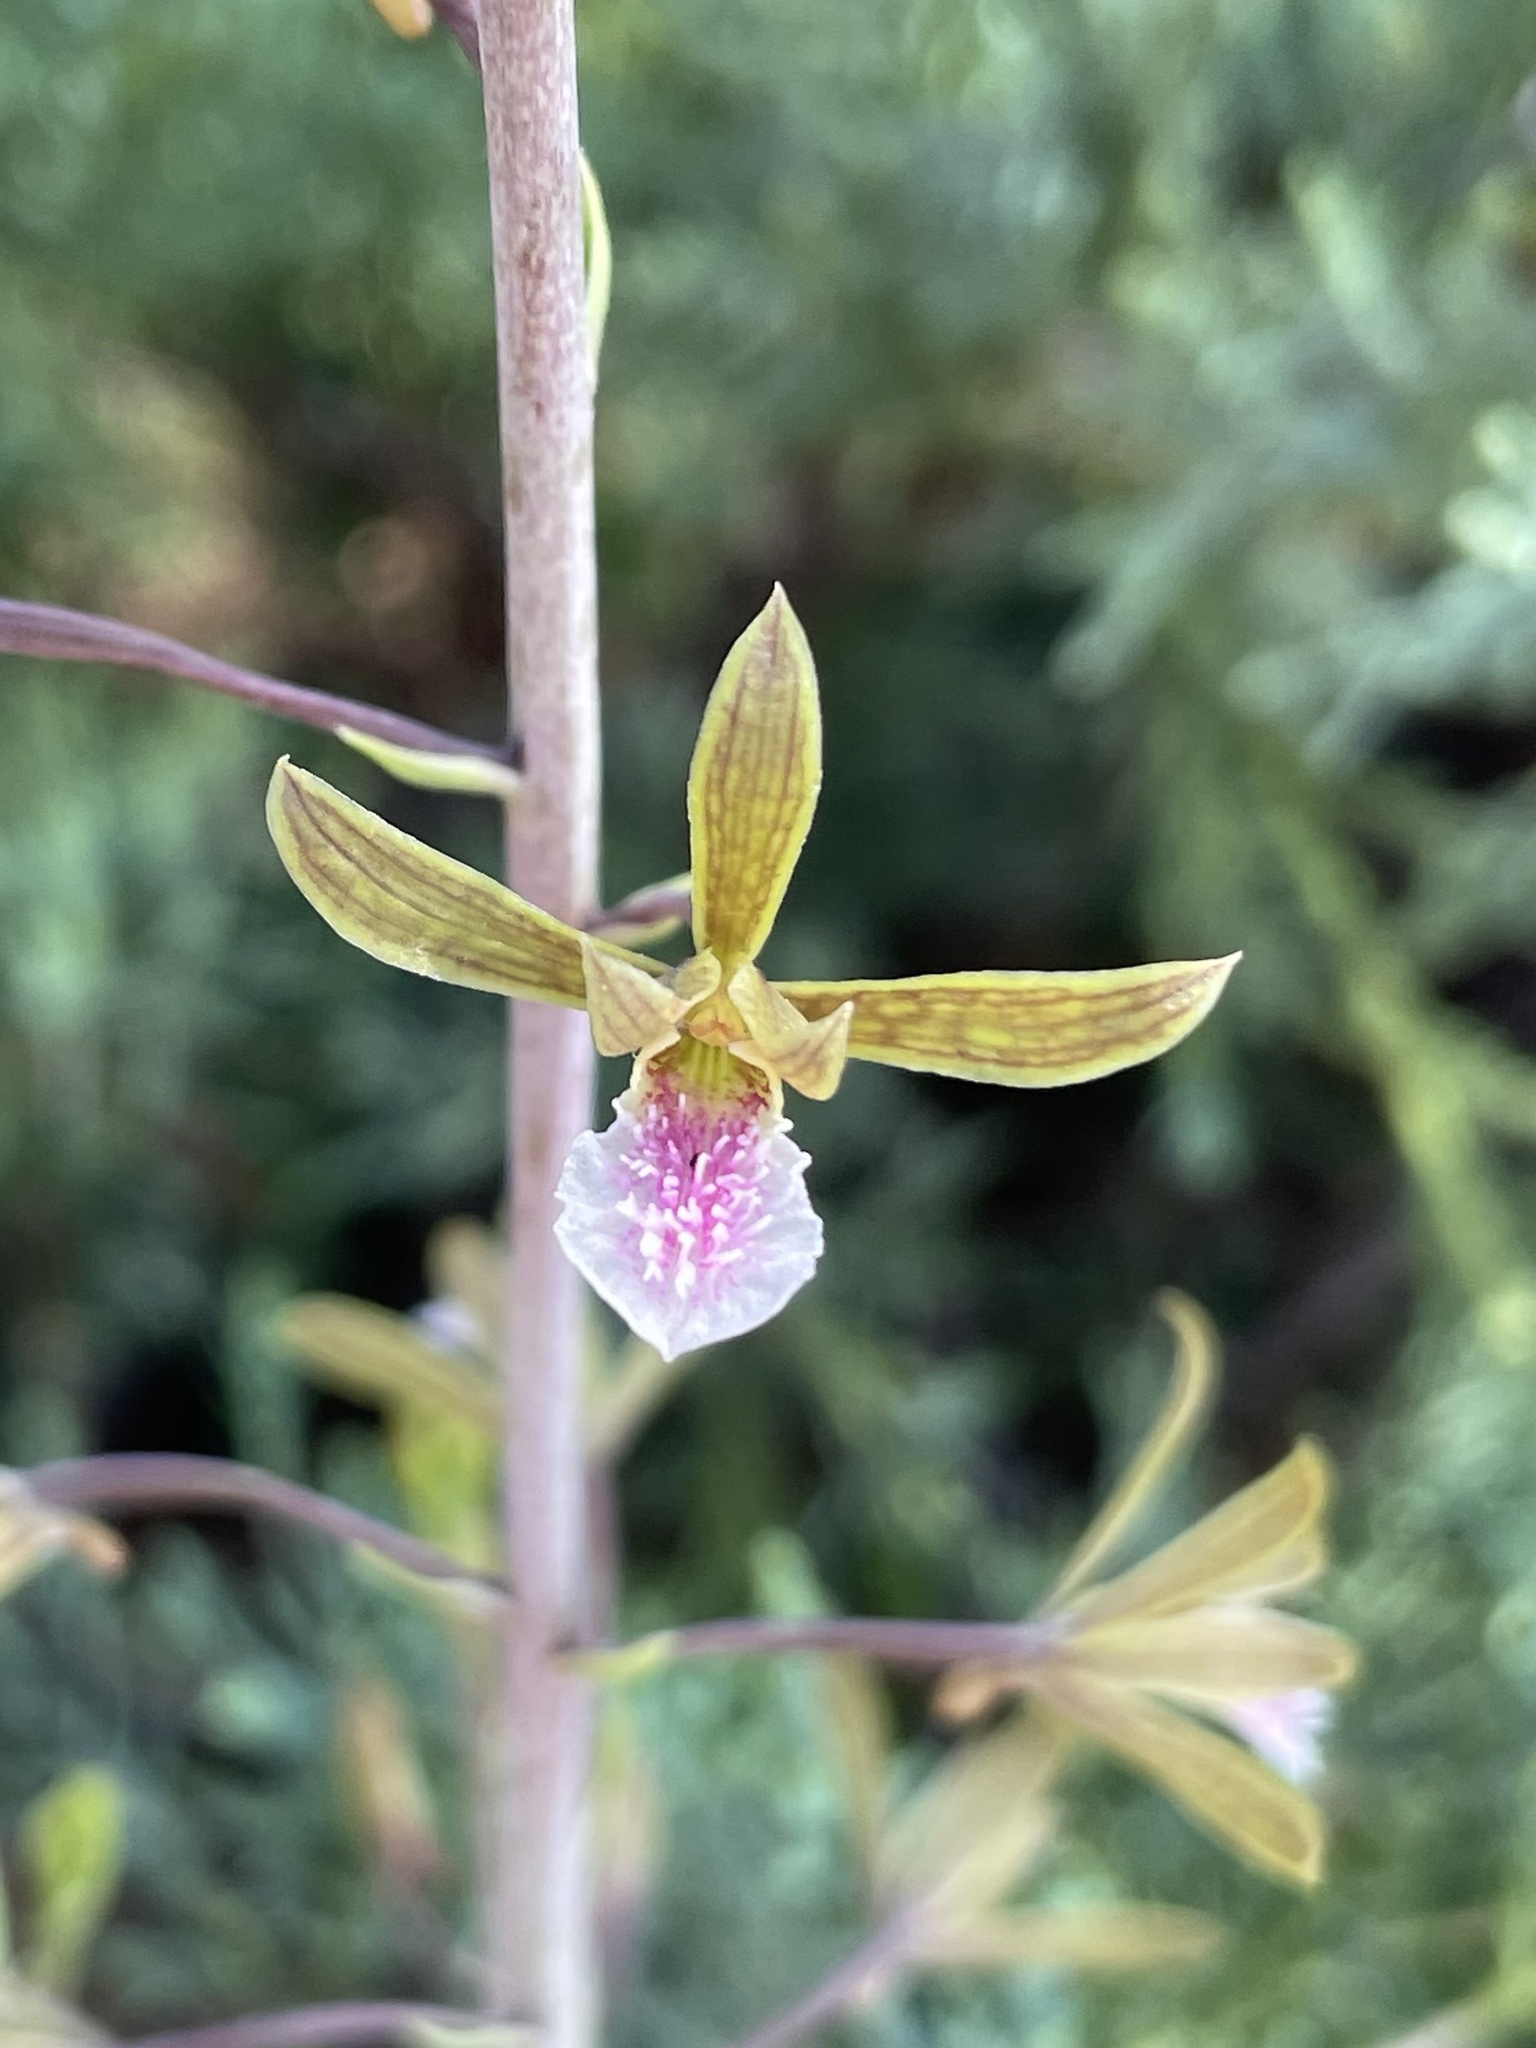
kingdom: Plantae
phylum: Tracheophyta
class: Liliopsida
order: Asparagales
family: Orchidaceae
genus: Eulophia
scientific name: Eulophia graminea
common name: Orchid
